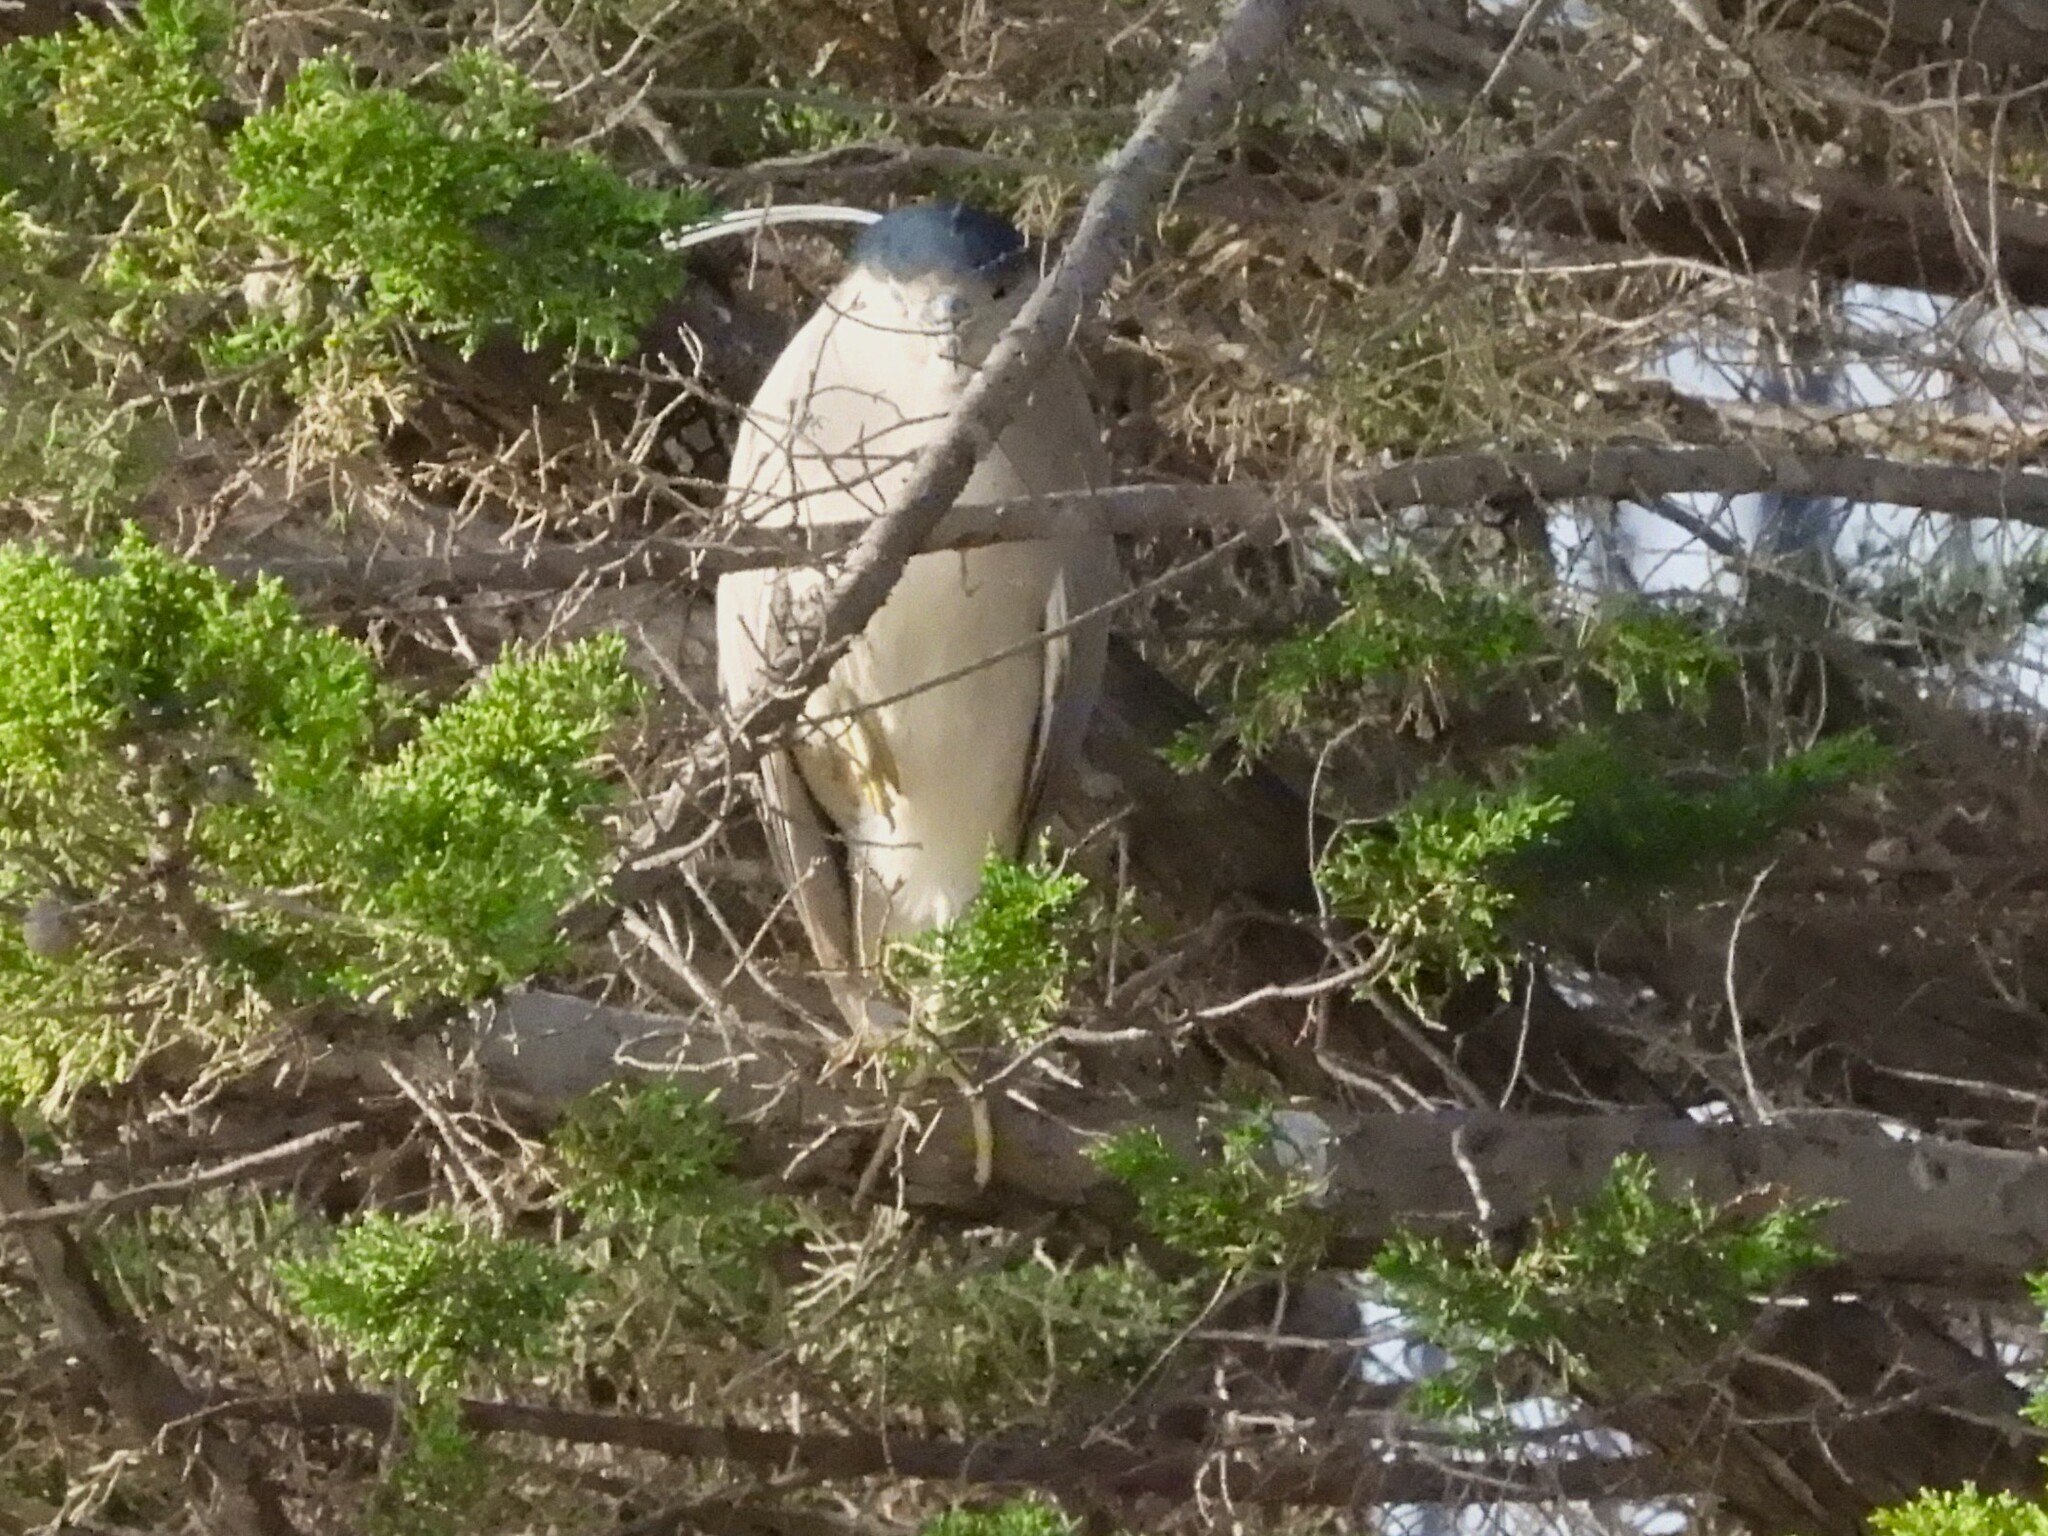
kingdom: Animalia
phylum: Chordata
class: Aves
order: Pelecaniformes
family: Ardeidae
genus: Nycticorax
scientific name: Nycticorax nycticorax
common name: Black-crowned night heron
